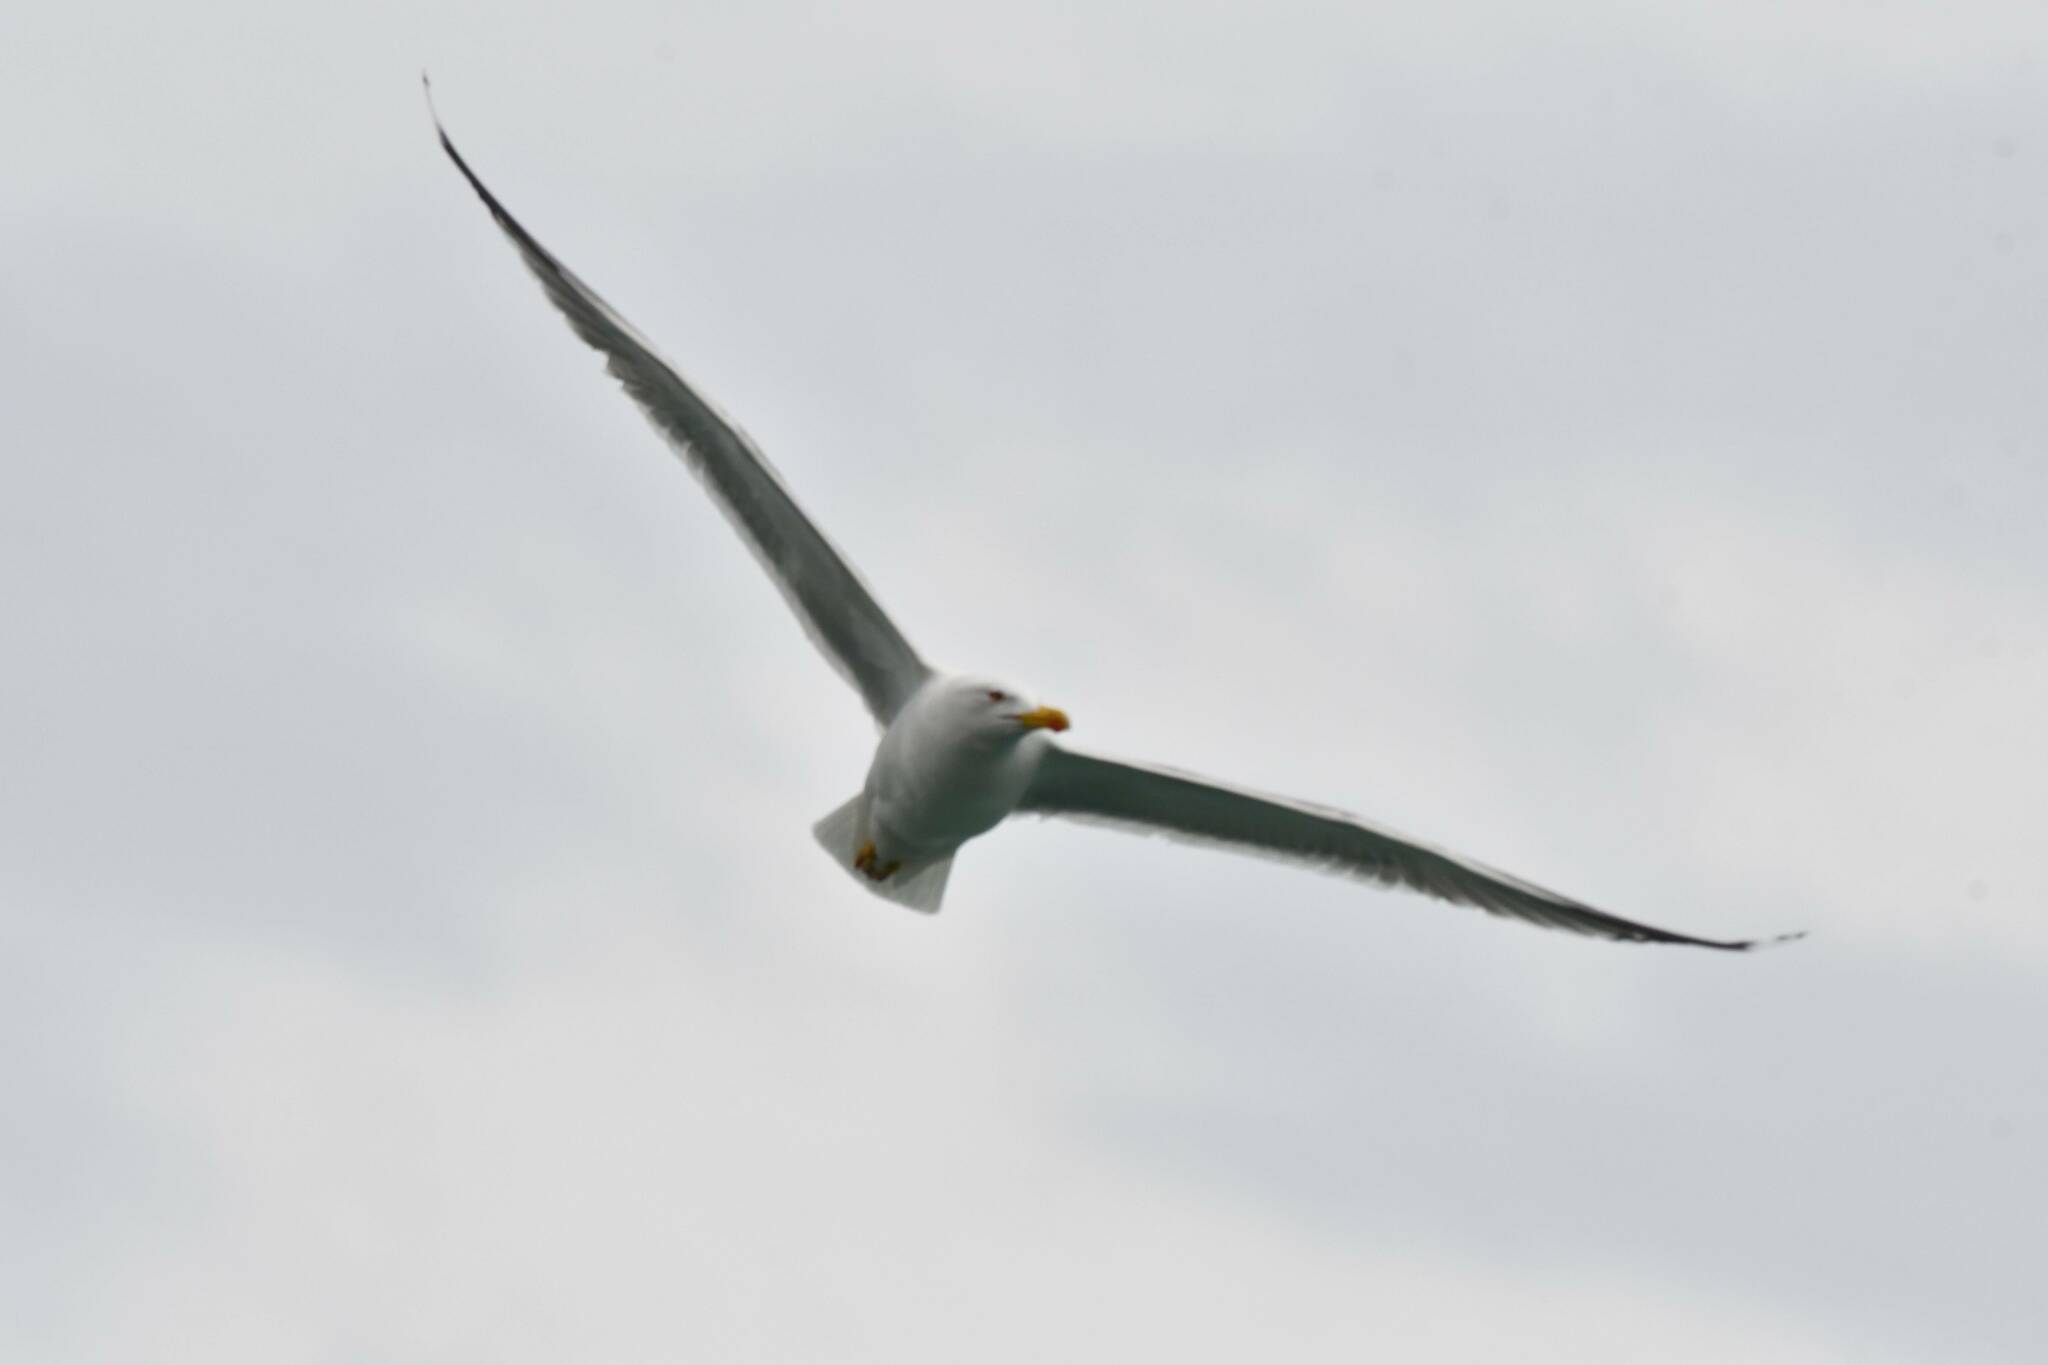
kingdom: Animalia
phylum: Chordata
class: Aves
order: Charadriiformes
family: Laridae
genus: Larus
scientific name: Larus michahellis
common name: Yellow-legged gull
